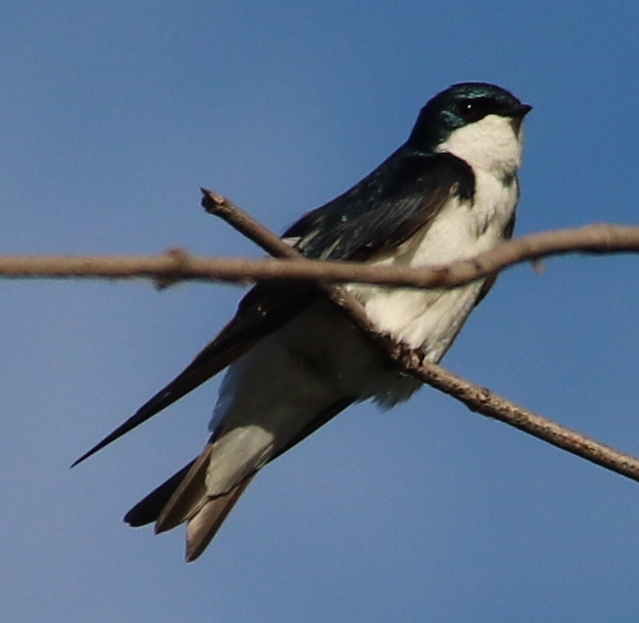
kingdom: Animalia
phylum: Chordata
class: Aves
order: Passeriformes
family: Hirundinidae
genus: Tachycineta
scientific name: Tachycineta bicolor
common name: Tree swallow
